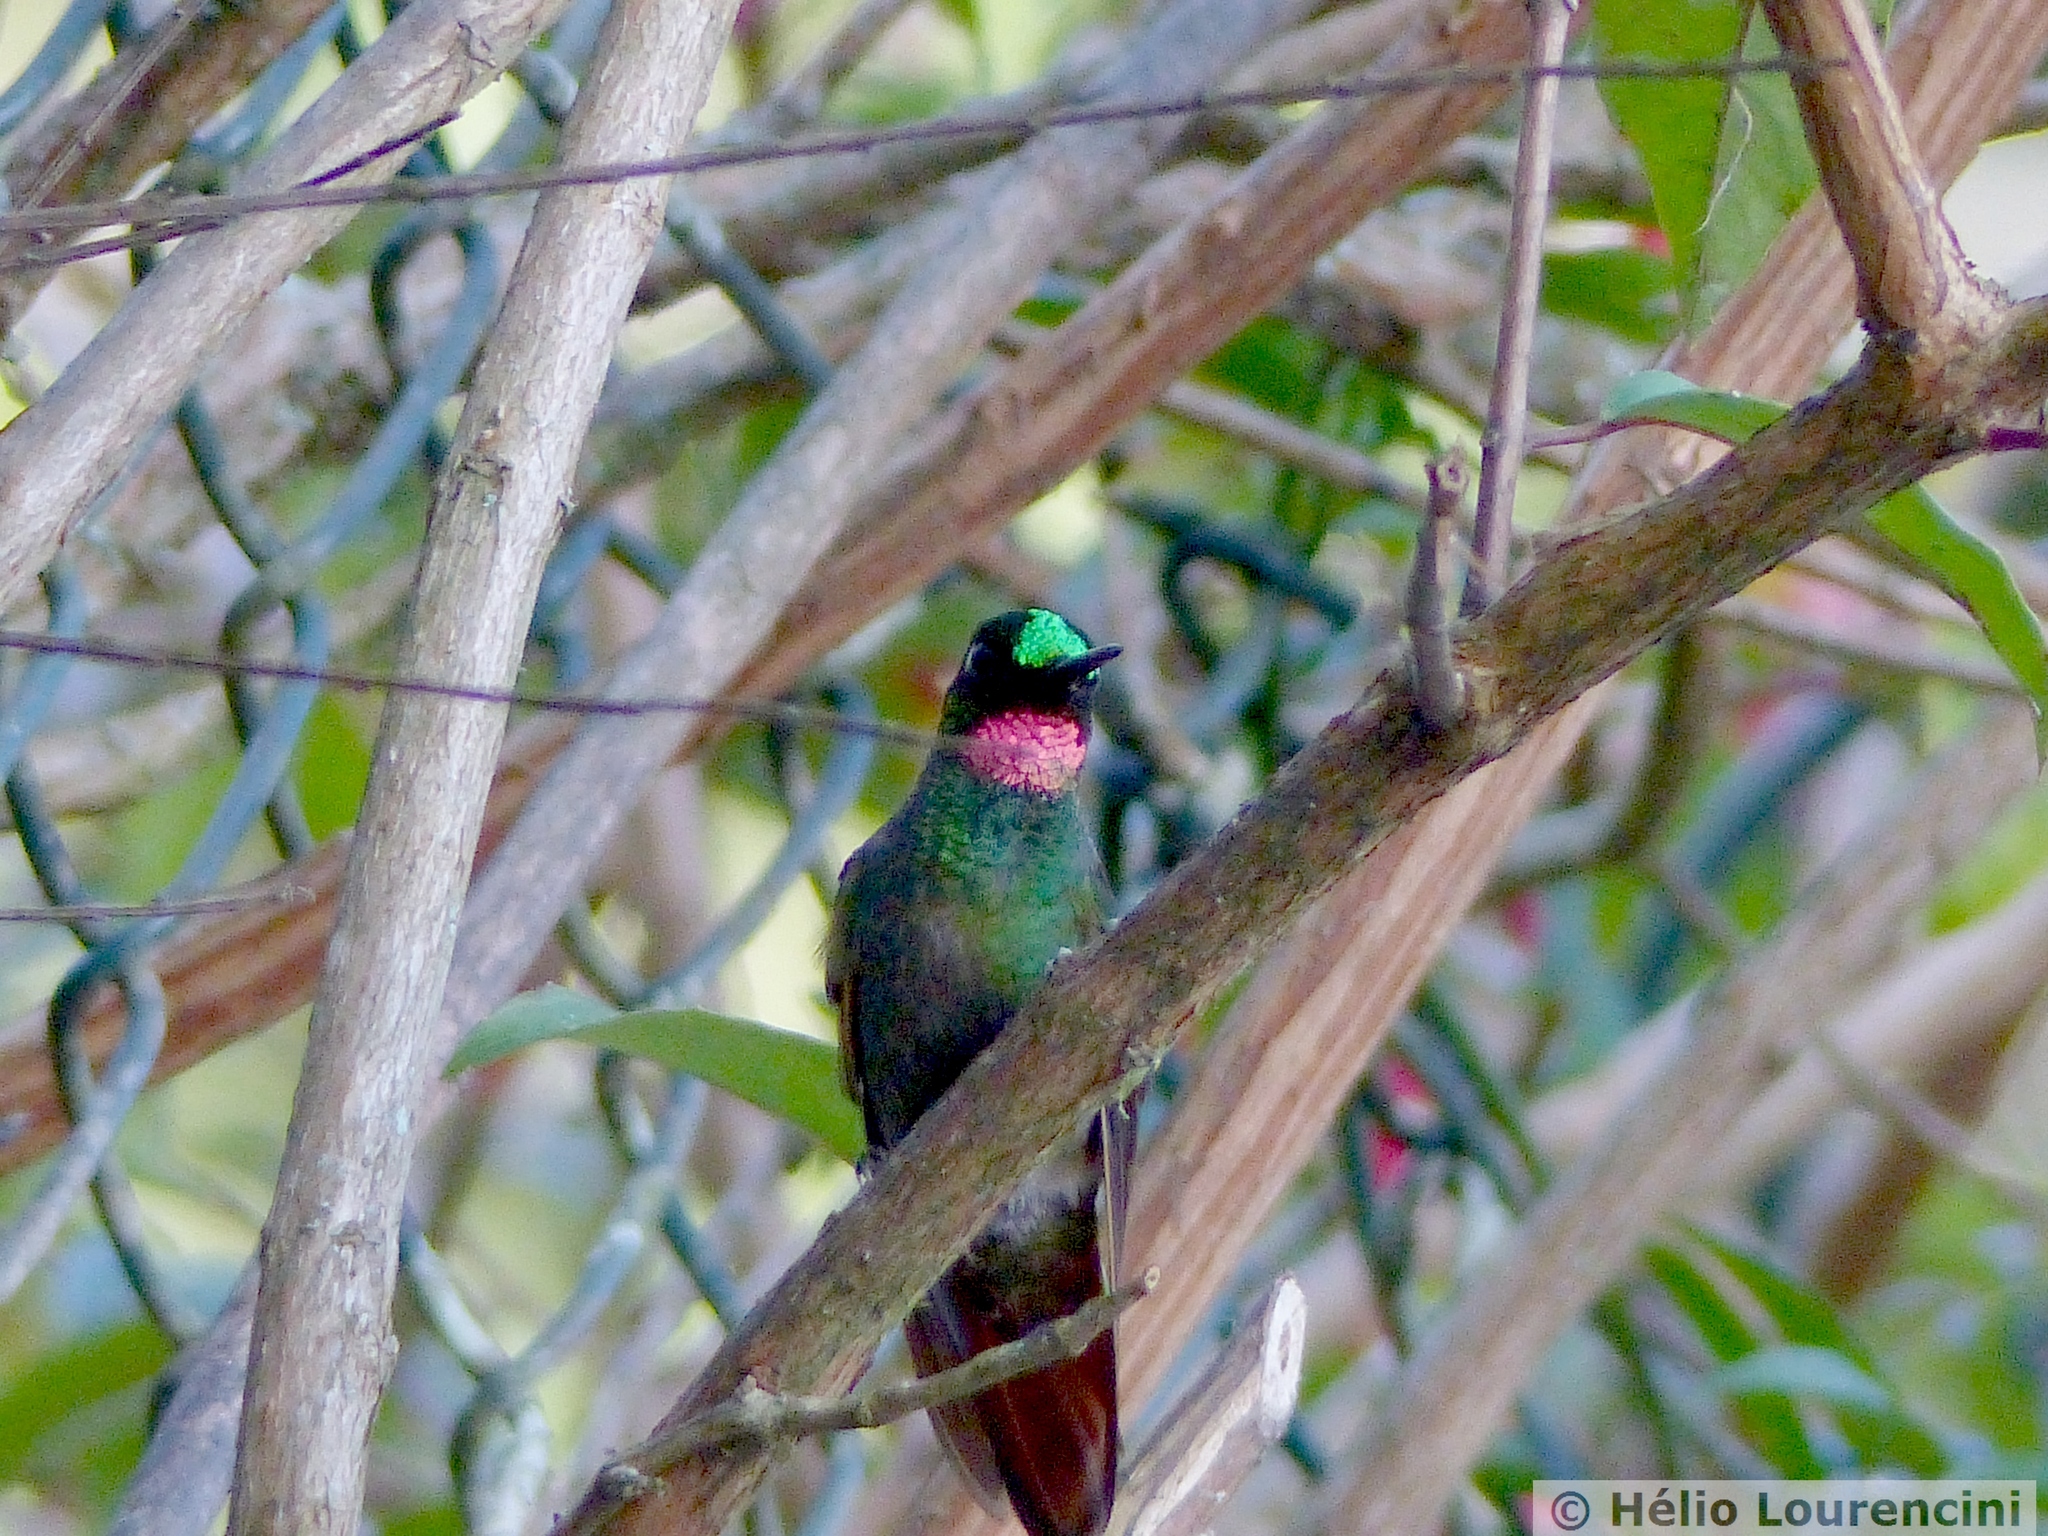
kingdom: Animalia
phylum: Chordata
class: Aves
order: Apodiformes
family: Trochilidae
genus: Clytolaema
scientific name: Clytolaema rubricauda
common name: Brazilian ruby
